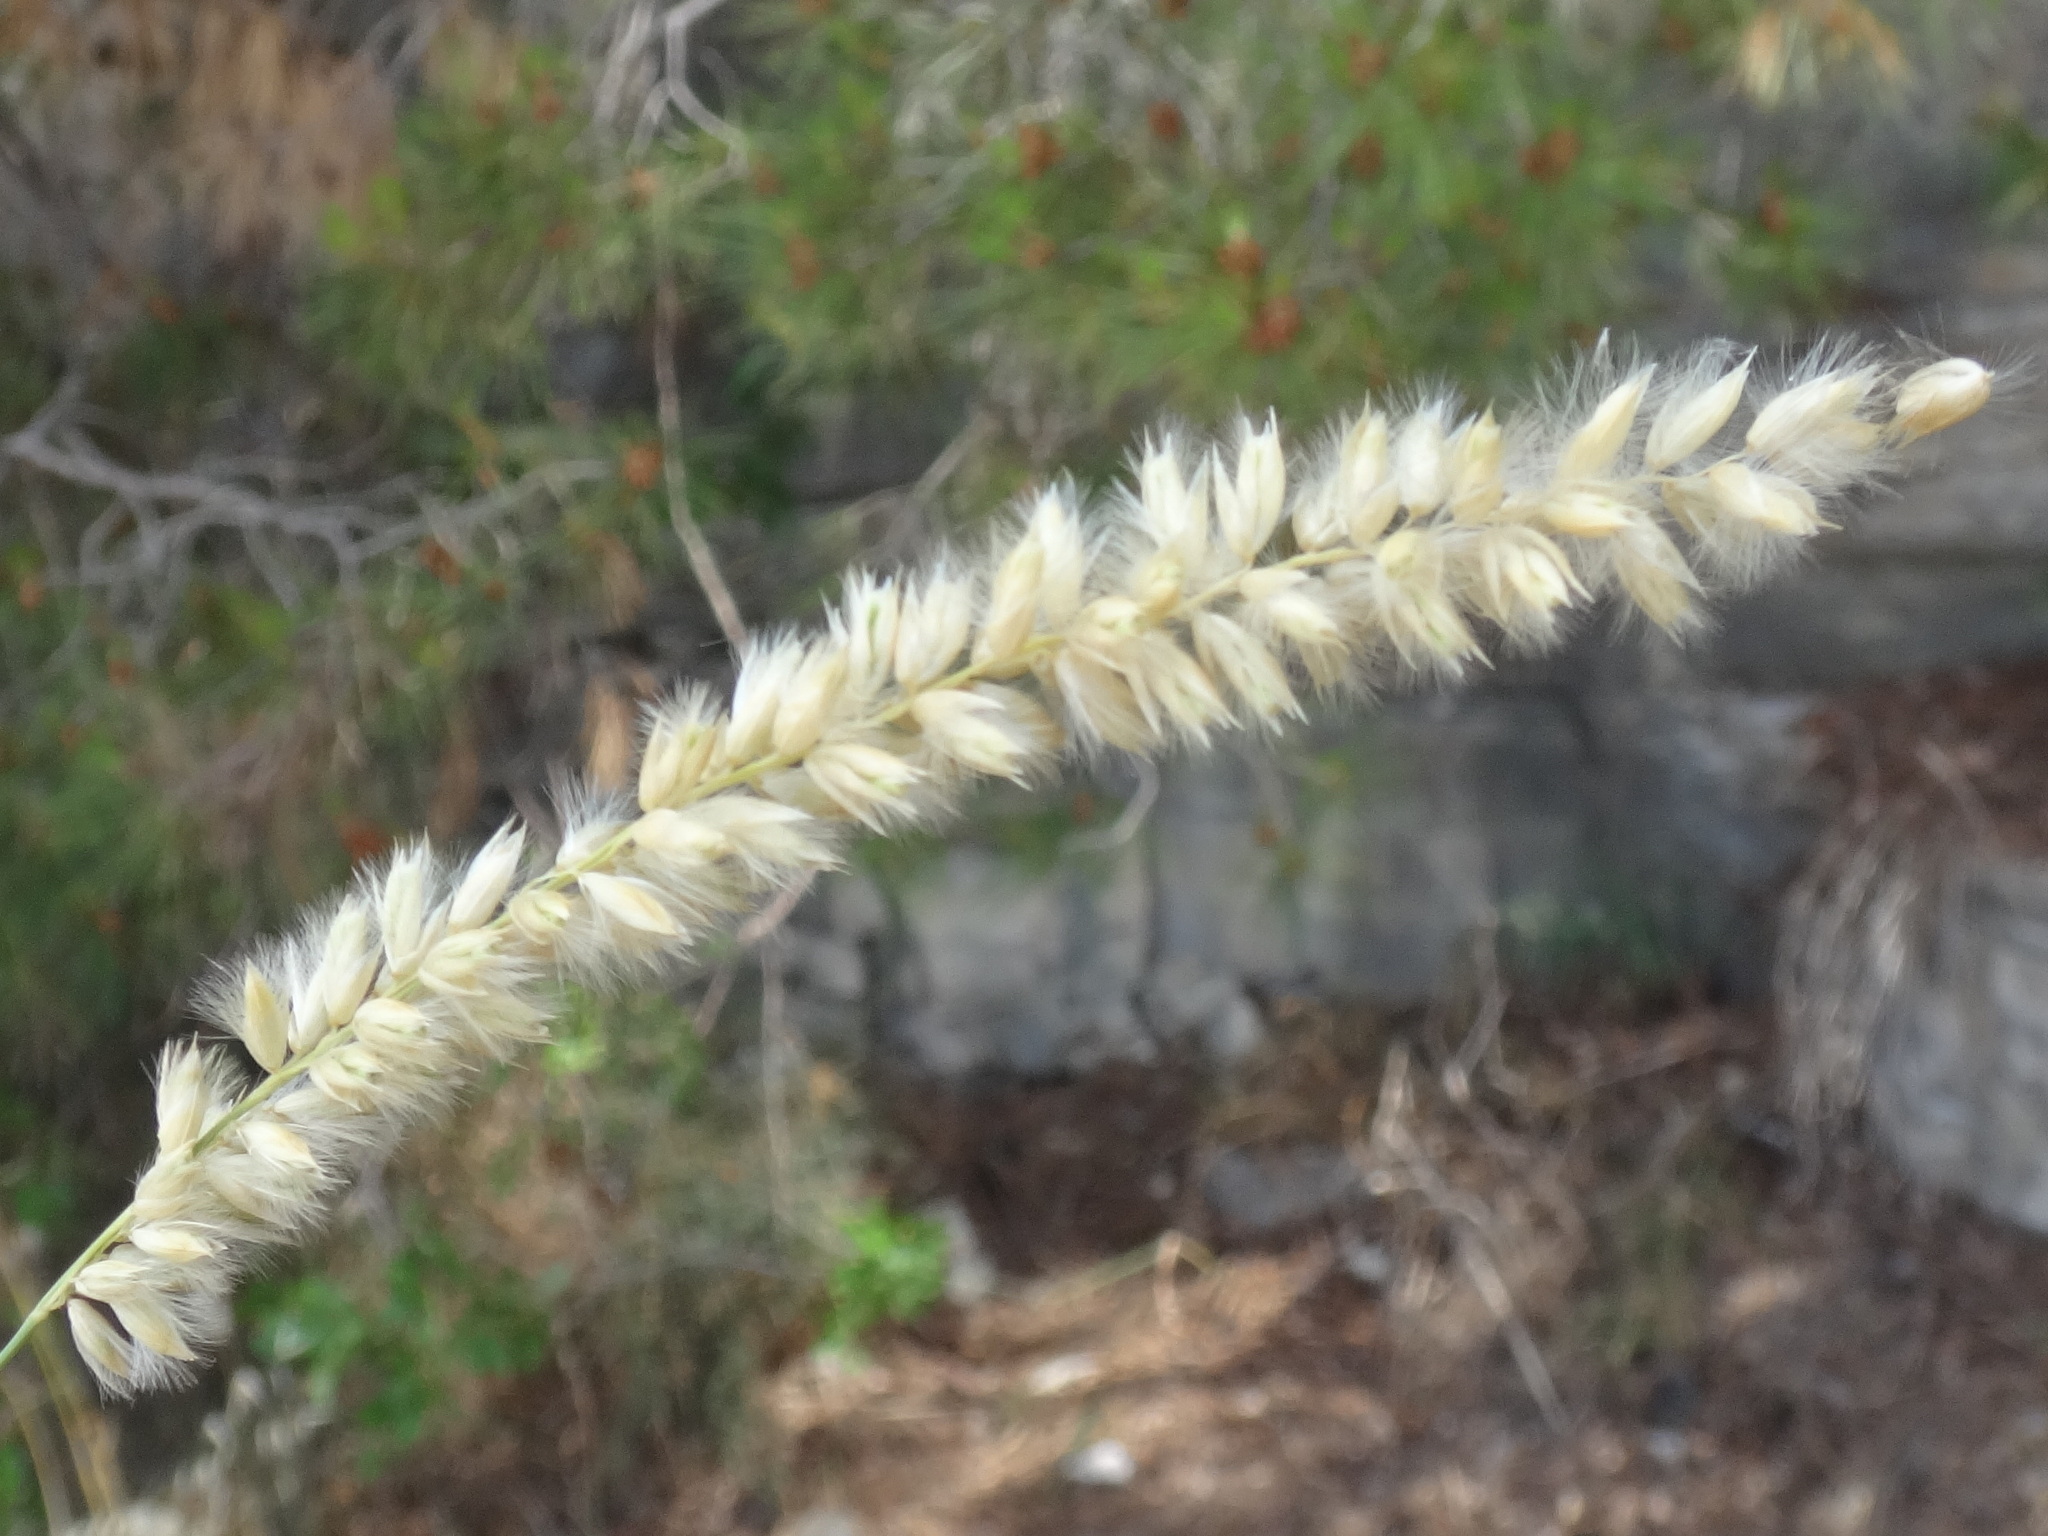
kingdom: Plantae
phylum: Tracheophyta
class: Liliopsida
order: Poales
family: Poaceae
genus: Melica
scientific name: Melica ciliata
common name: Hairy melicgrass
